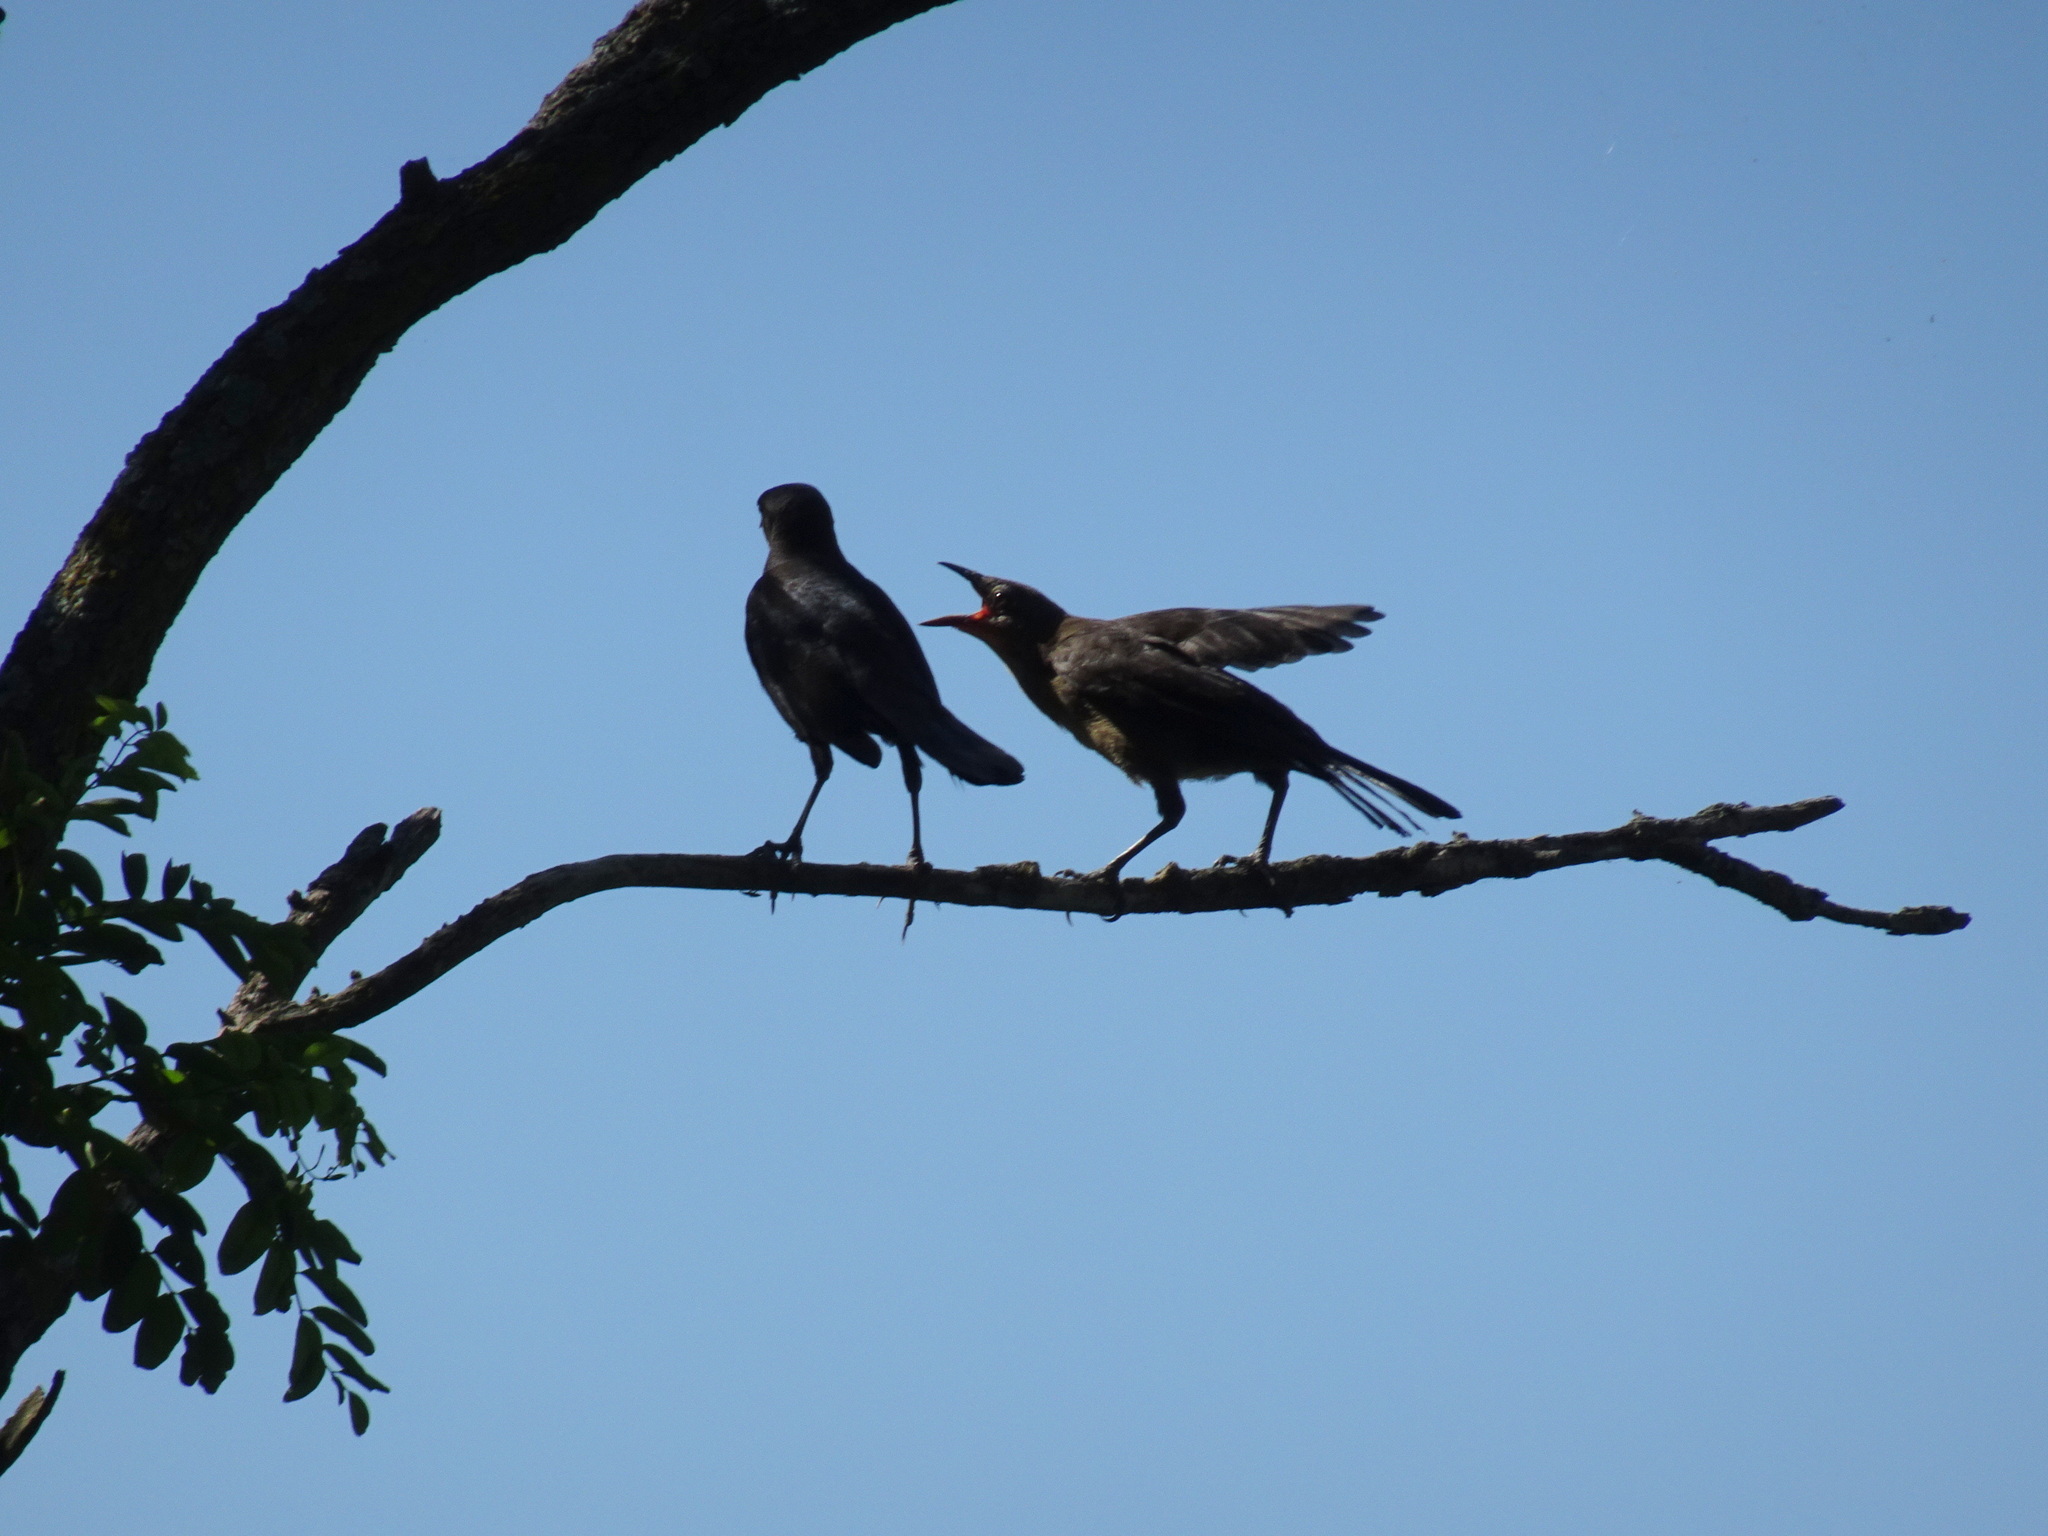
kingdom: Animalia
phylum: Chordata
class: Aves
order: Passeriformes
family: Icteridae
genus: Quiscalus
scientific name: Quiscalus mexicanus
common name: Great-tailed grackle
